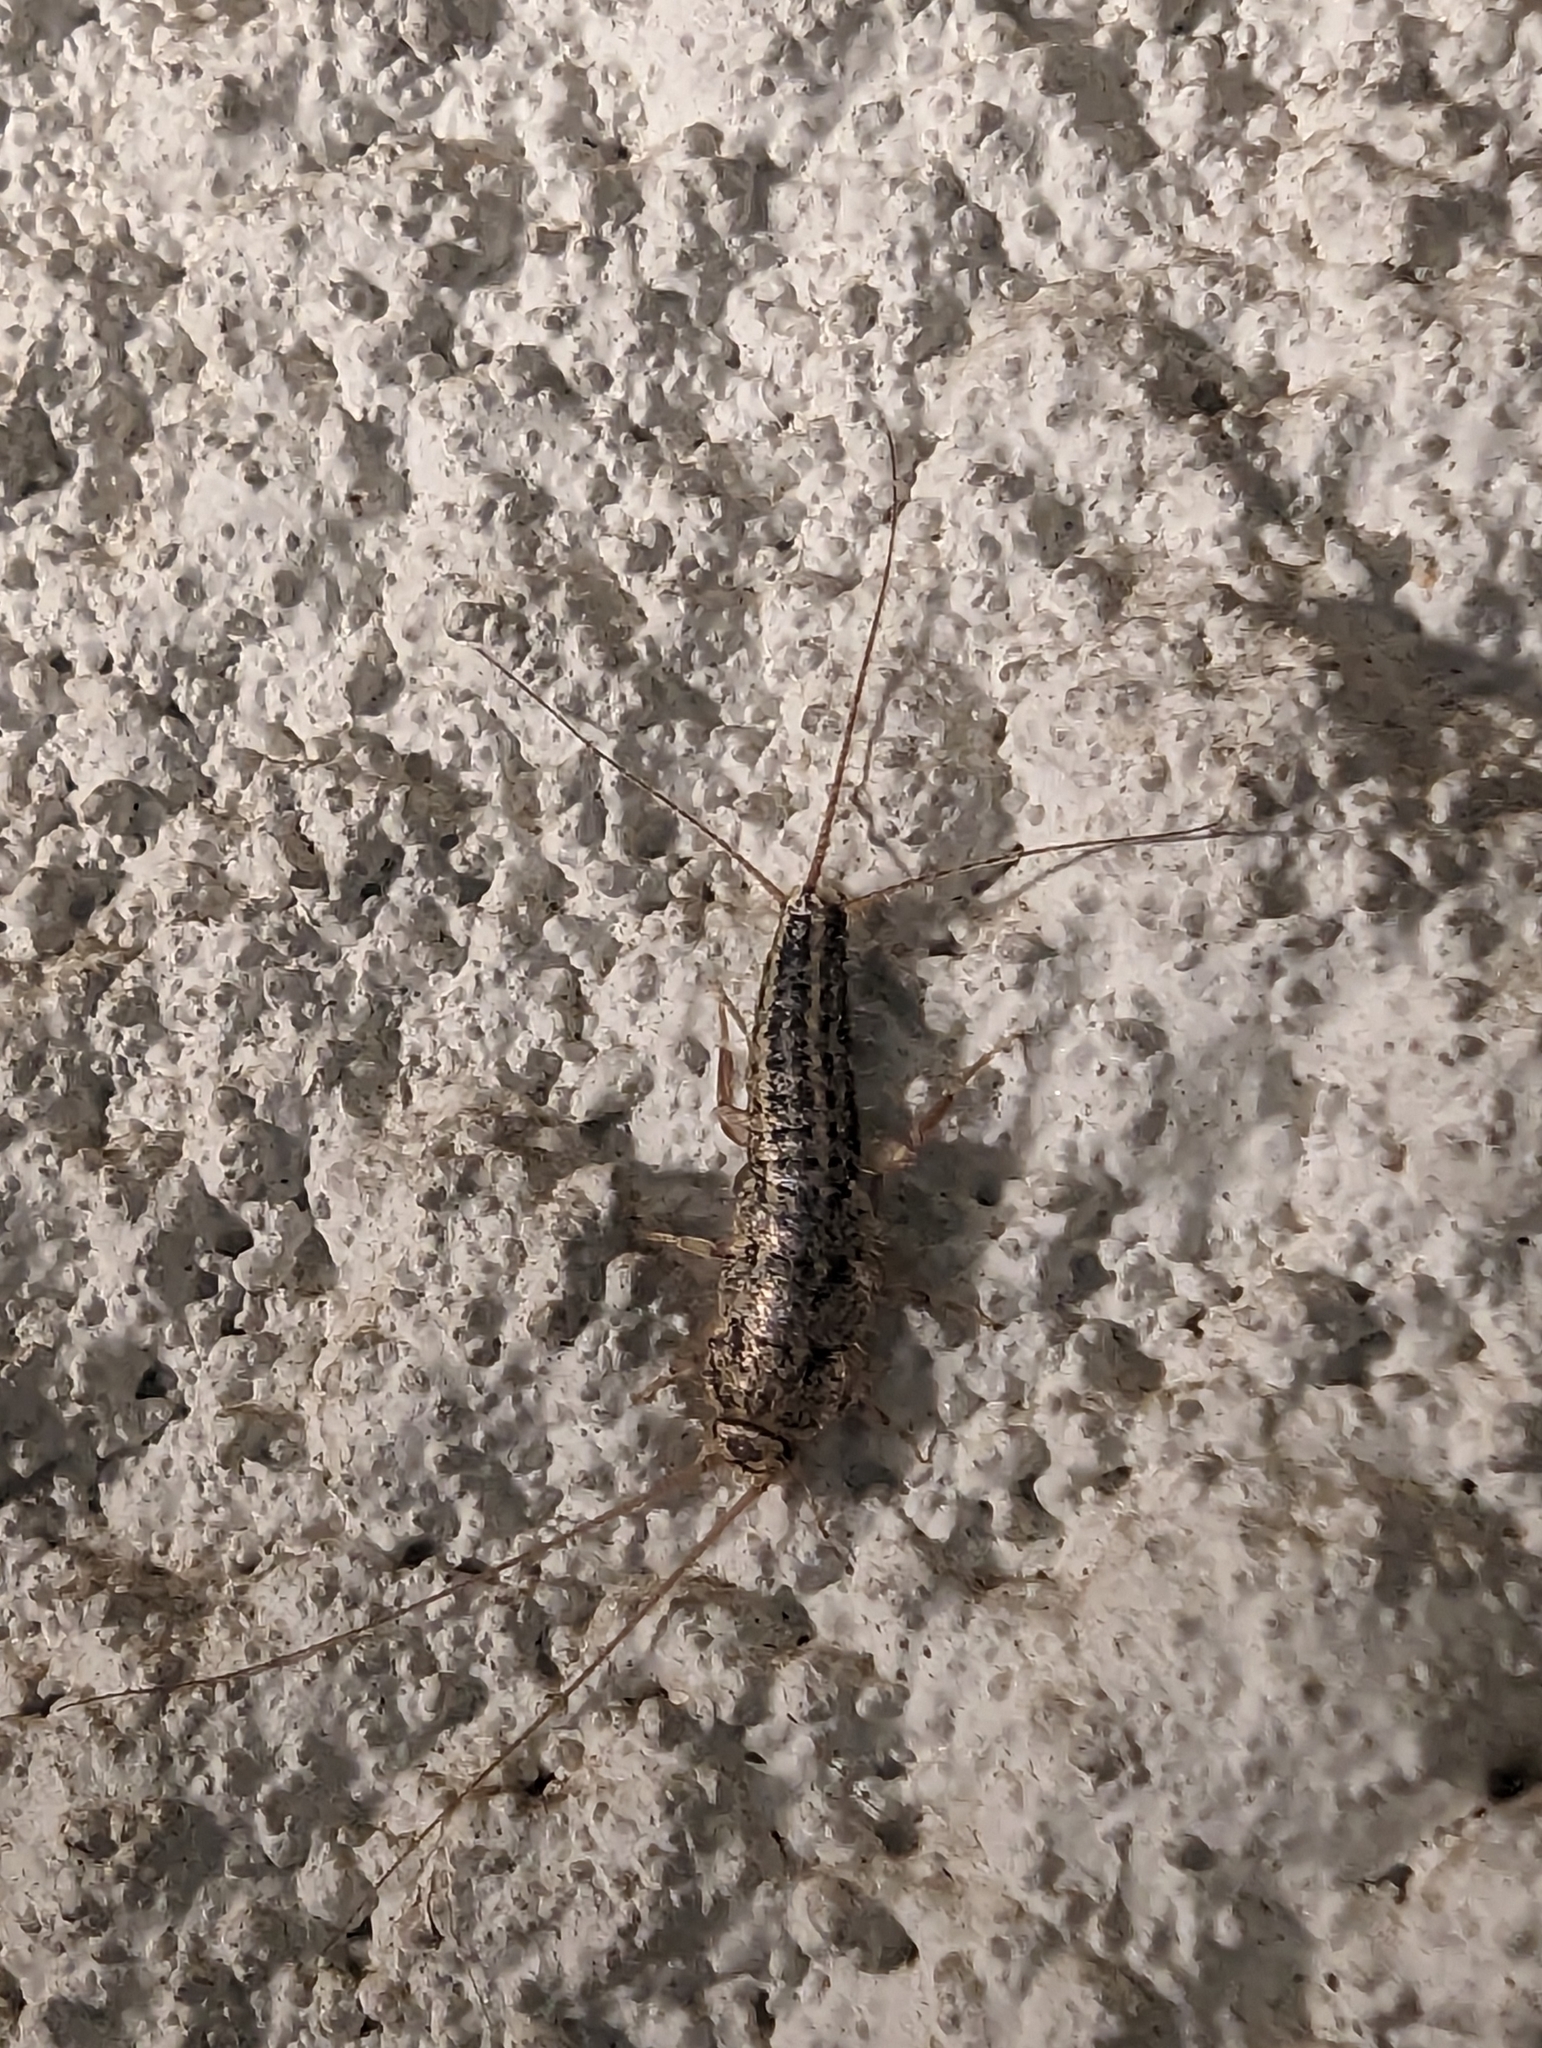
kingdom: Animalia
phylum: Arthropoda
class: Insecta
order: Zygentoma
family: Lepismatidae
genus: Ctenolepisma
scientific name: Ctenolepisma lineata
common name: Four-lined silverfish
